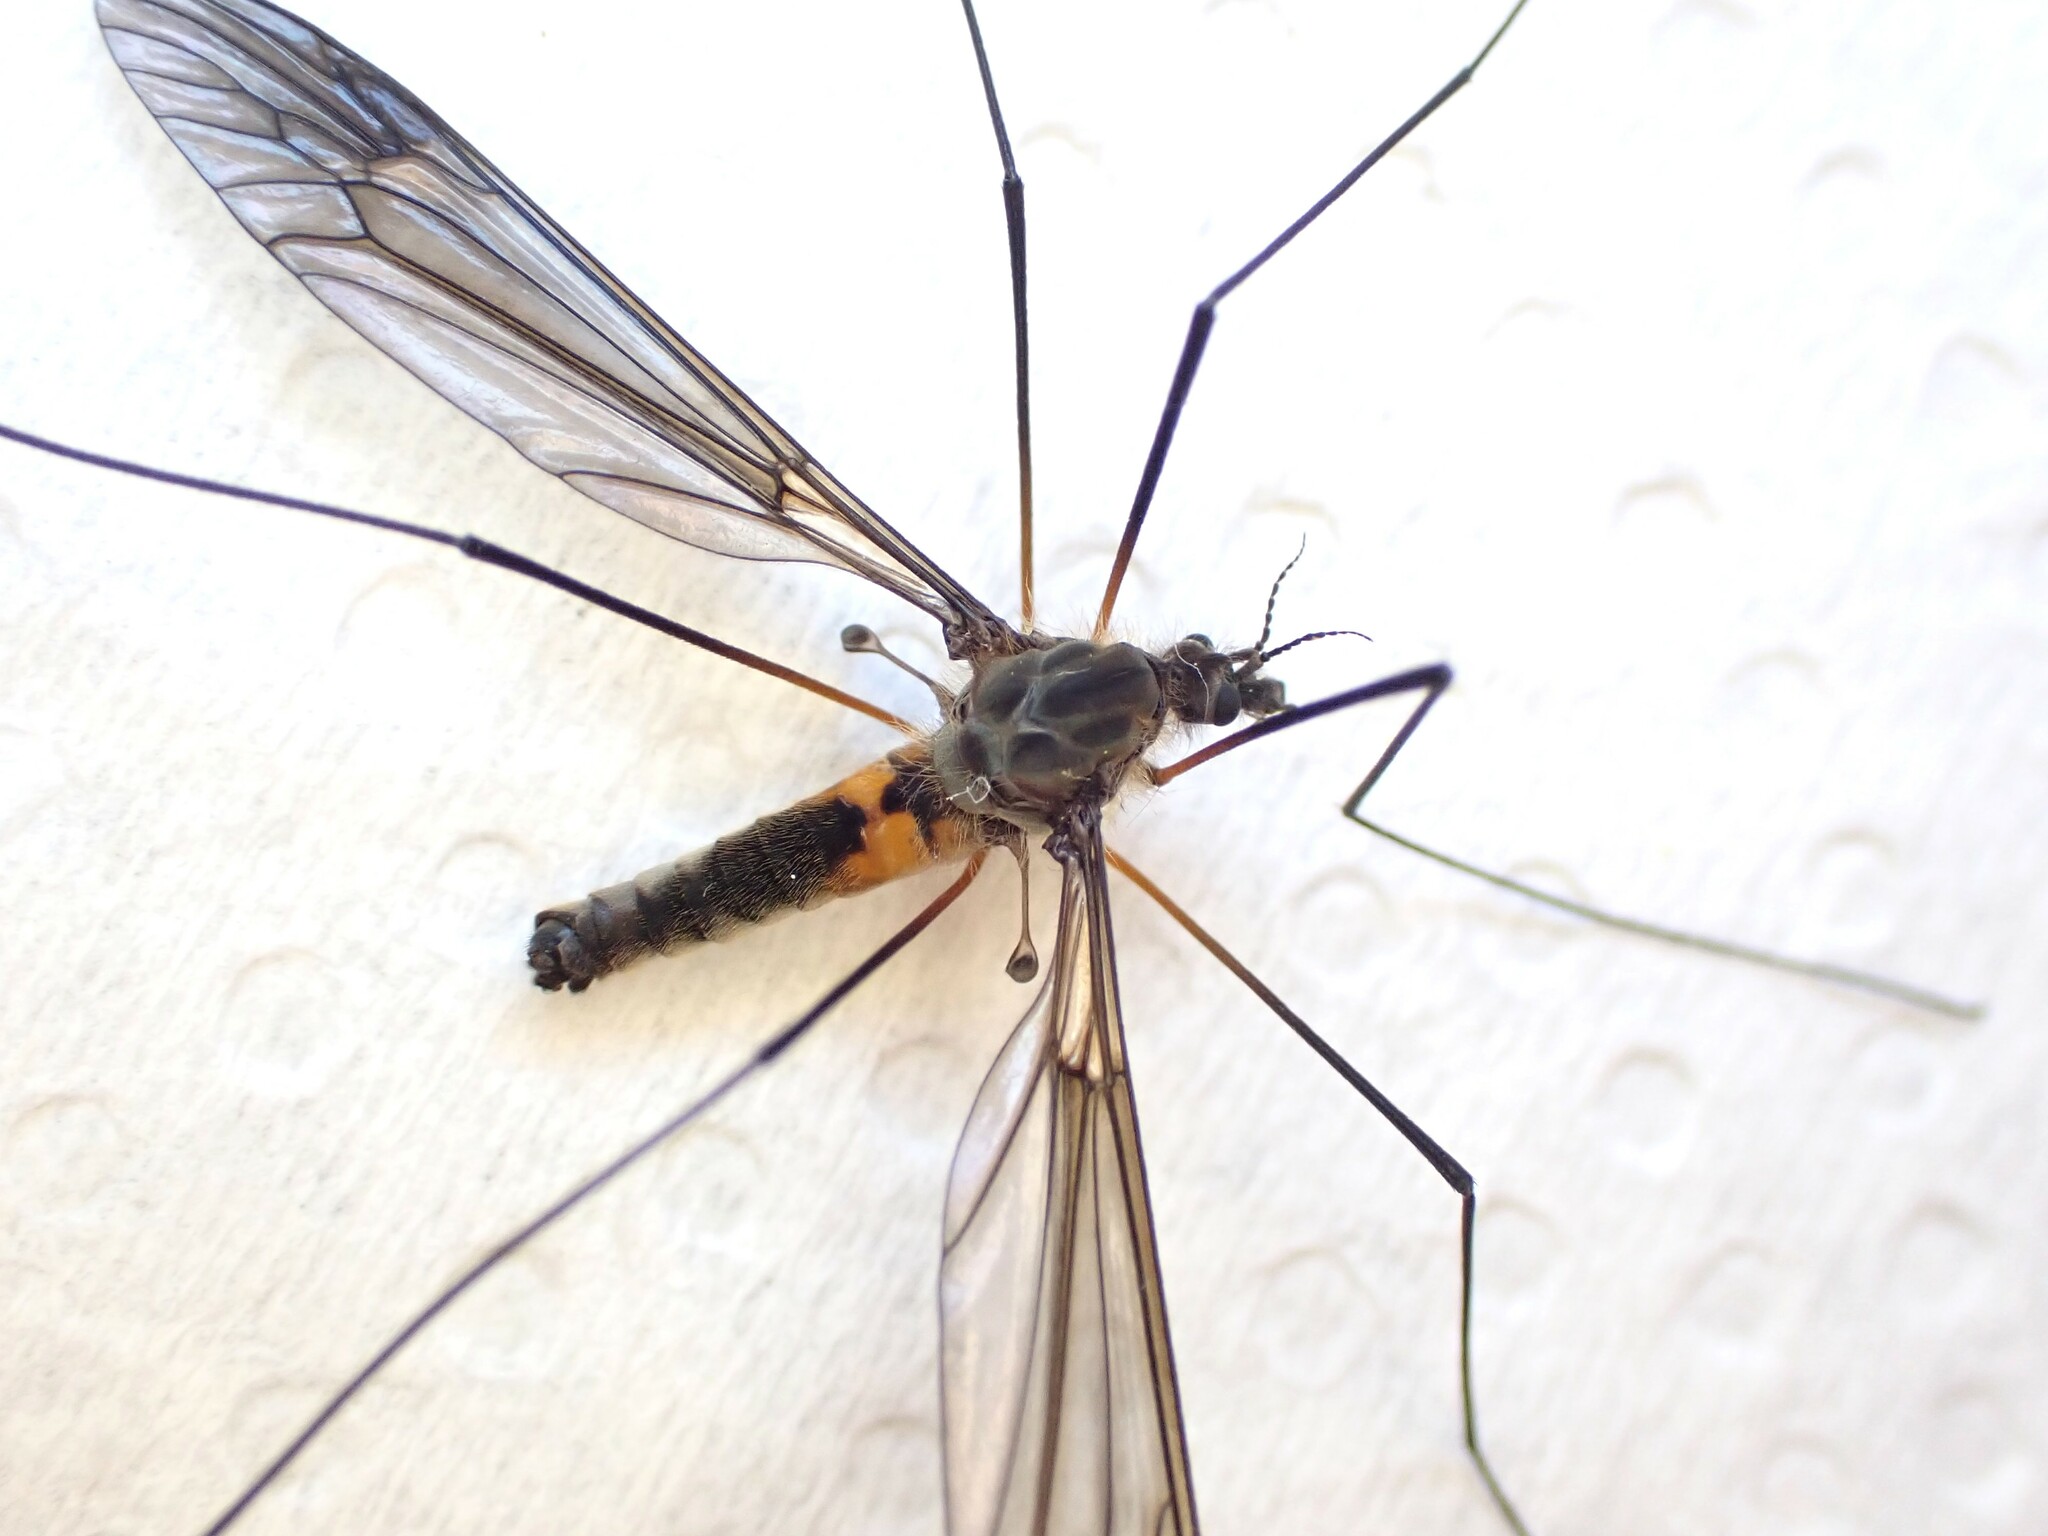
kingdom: Animalia
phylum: Arthropoda
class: Insecta
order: Diptera
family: Tipulidae
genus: Leptotarsus
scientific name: Leptotarsus rufibasis
